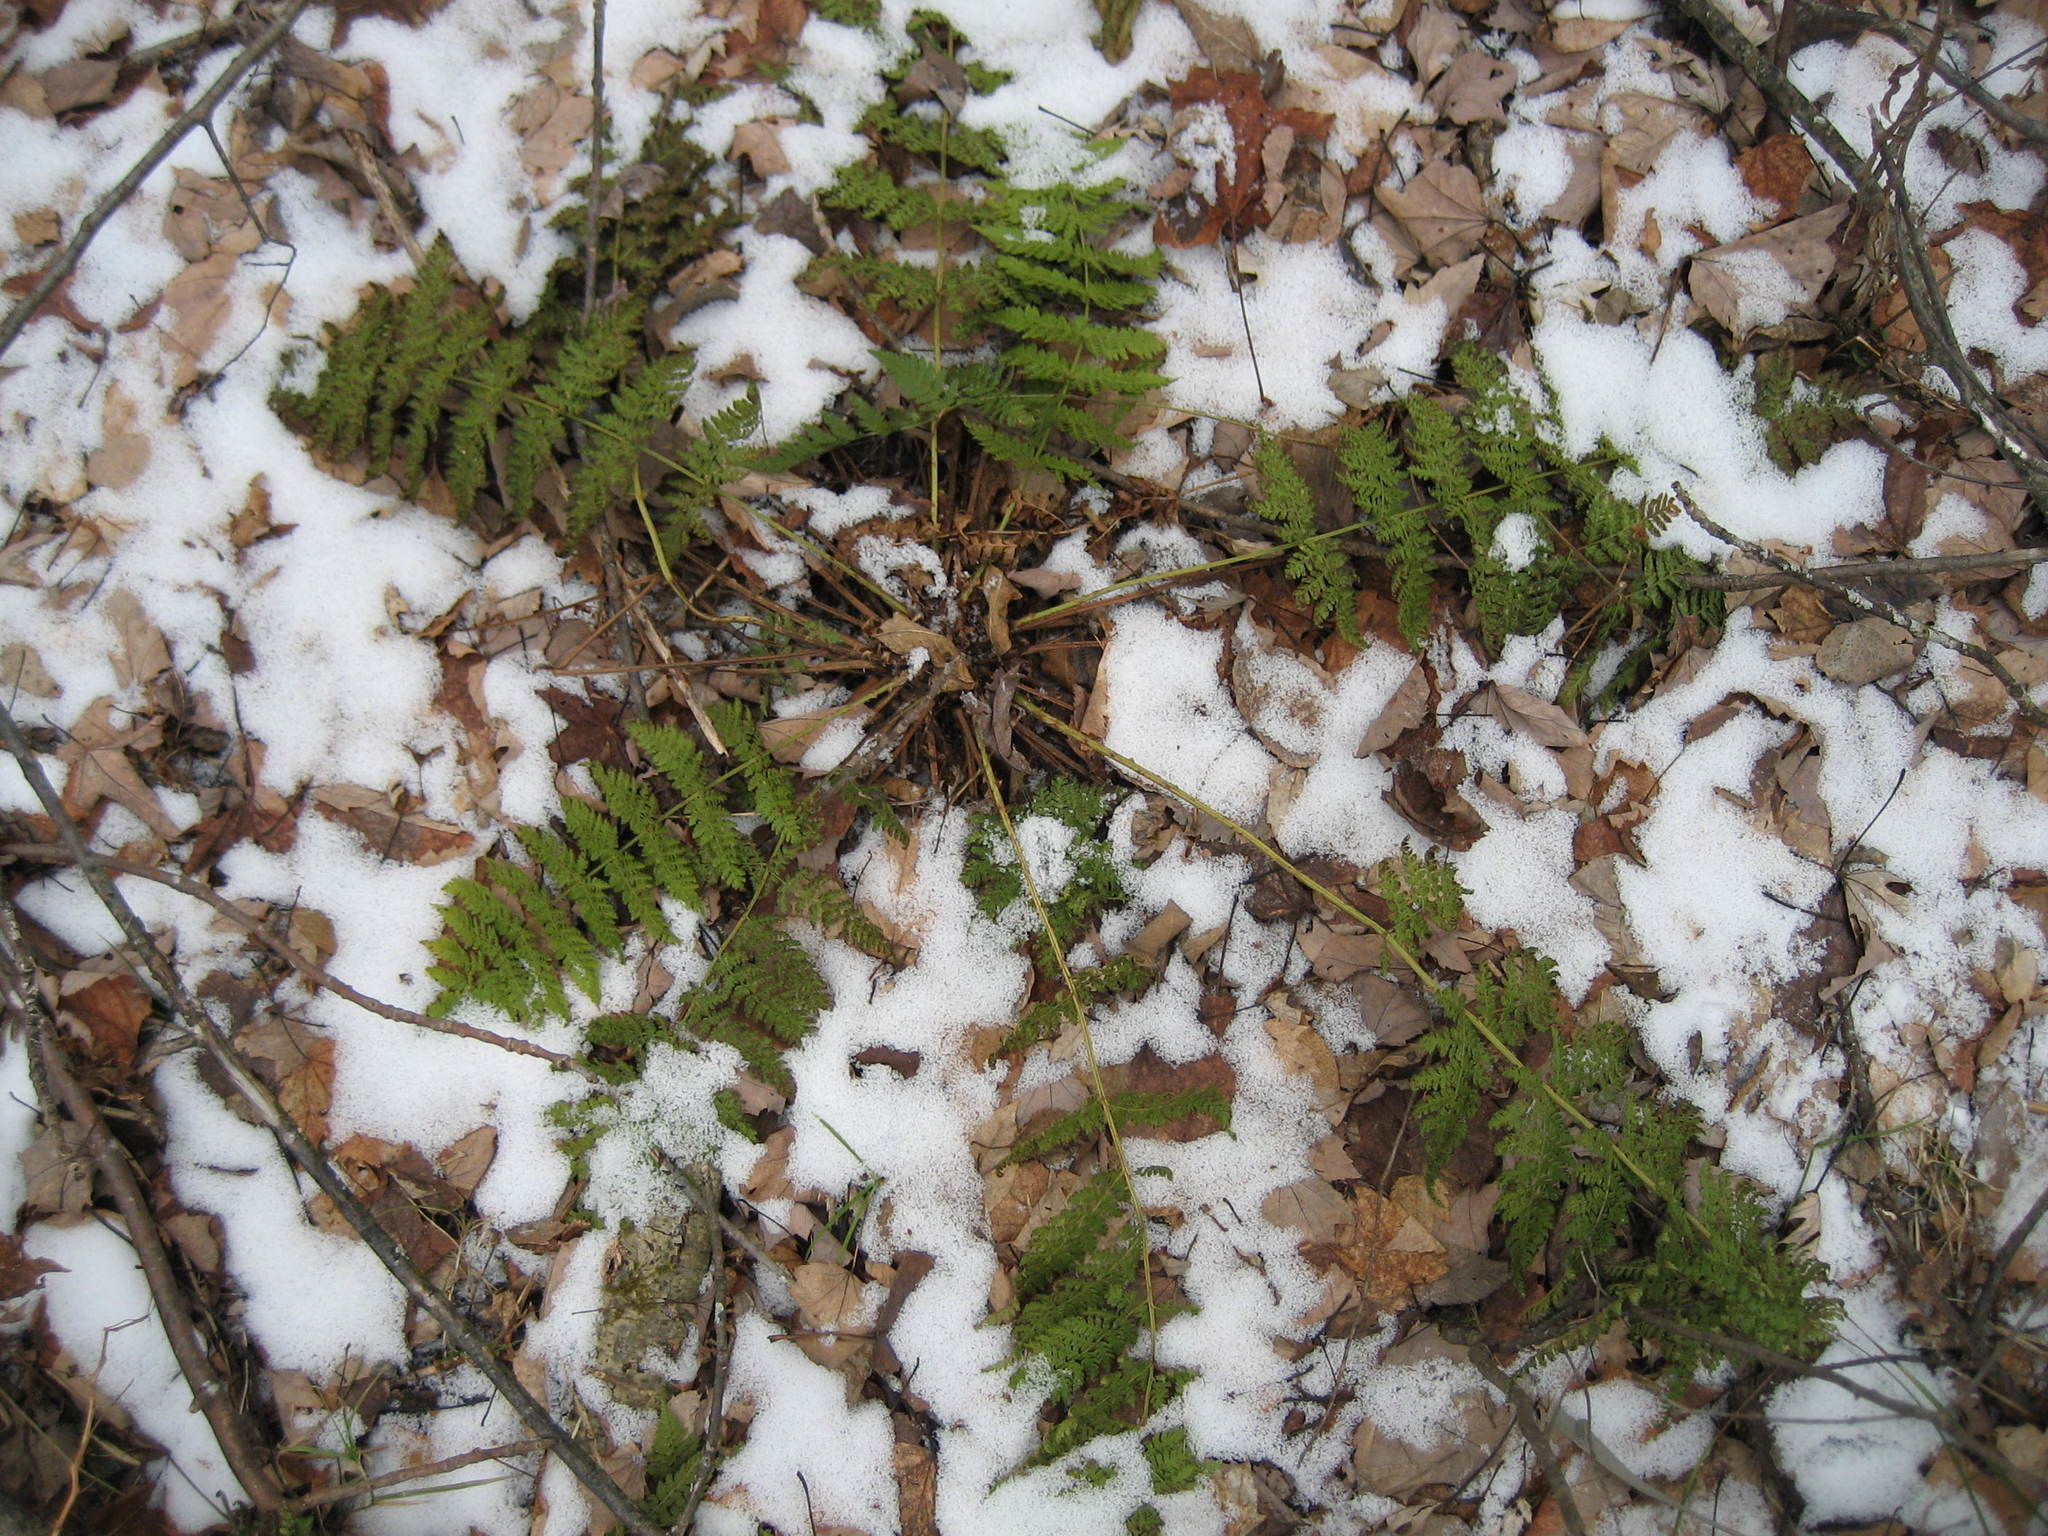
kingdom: Plantae
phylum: Tracheophyta
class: Polypodiopsida
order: Polypodiales
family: Dryopteridaceae
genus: Dryopteris
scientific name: Dryopteris intermedia
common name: Evergreen wood fern
